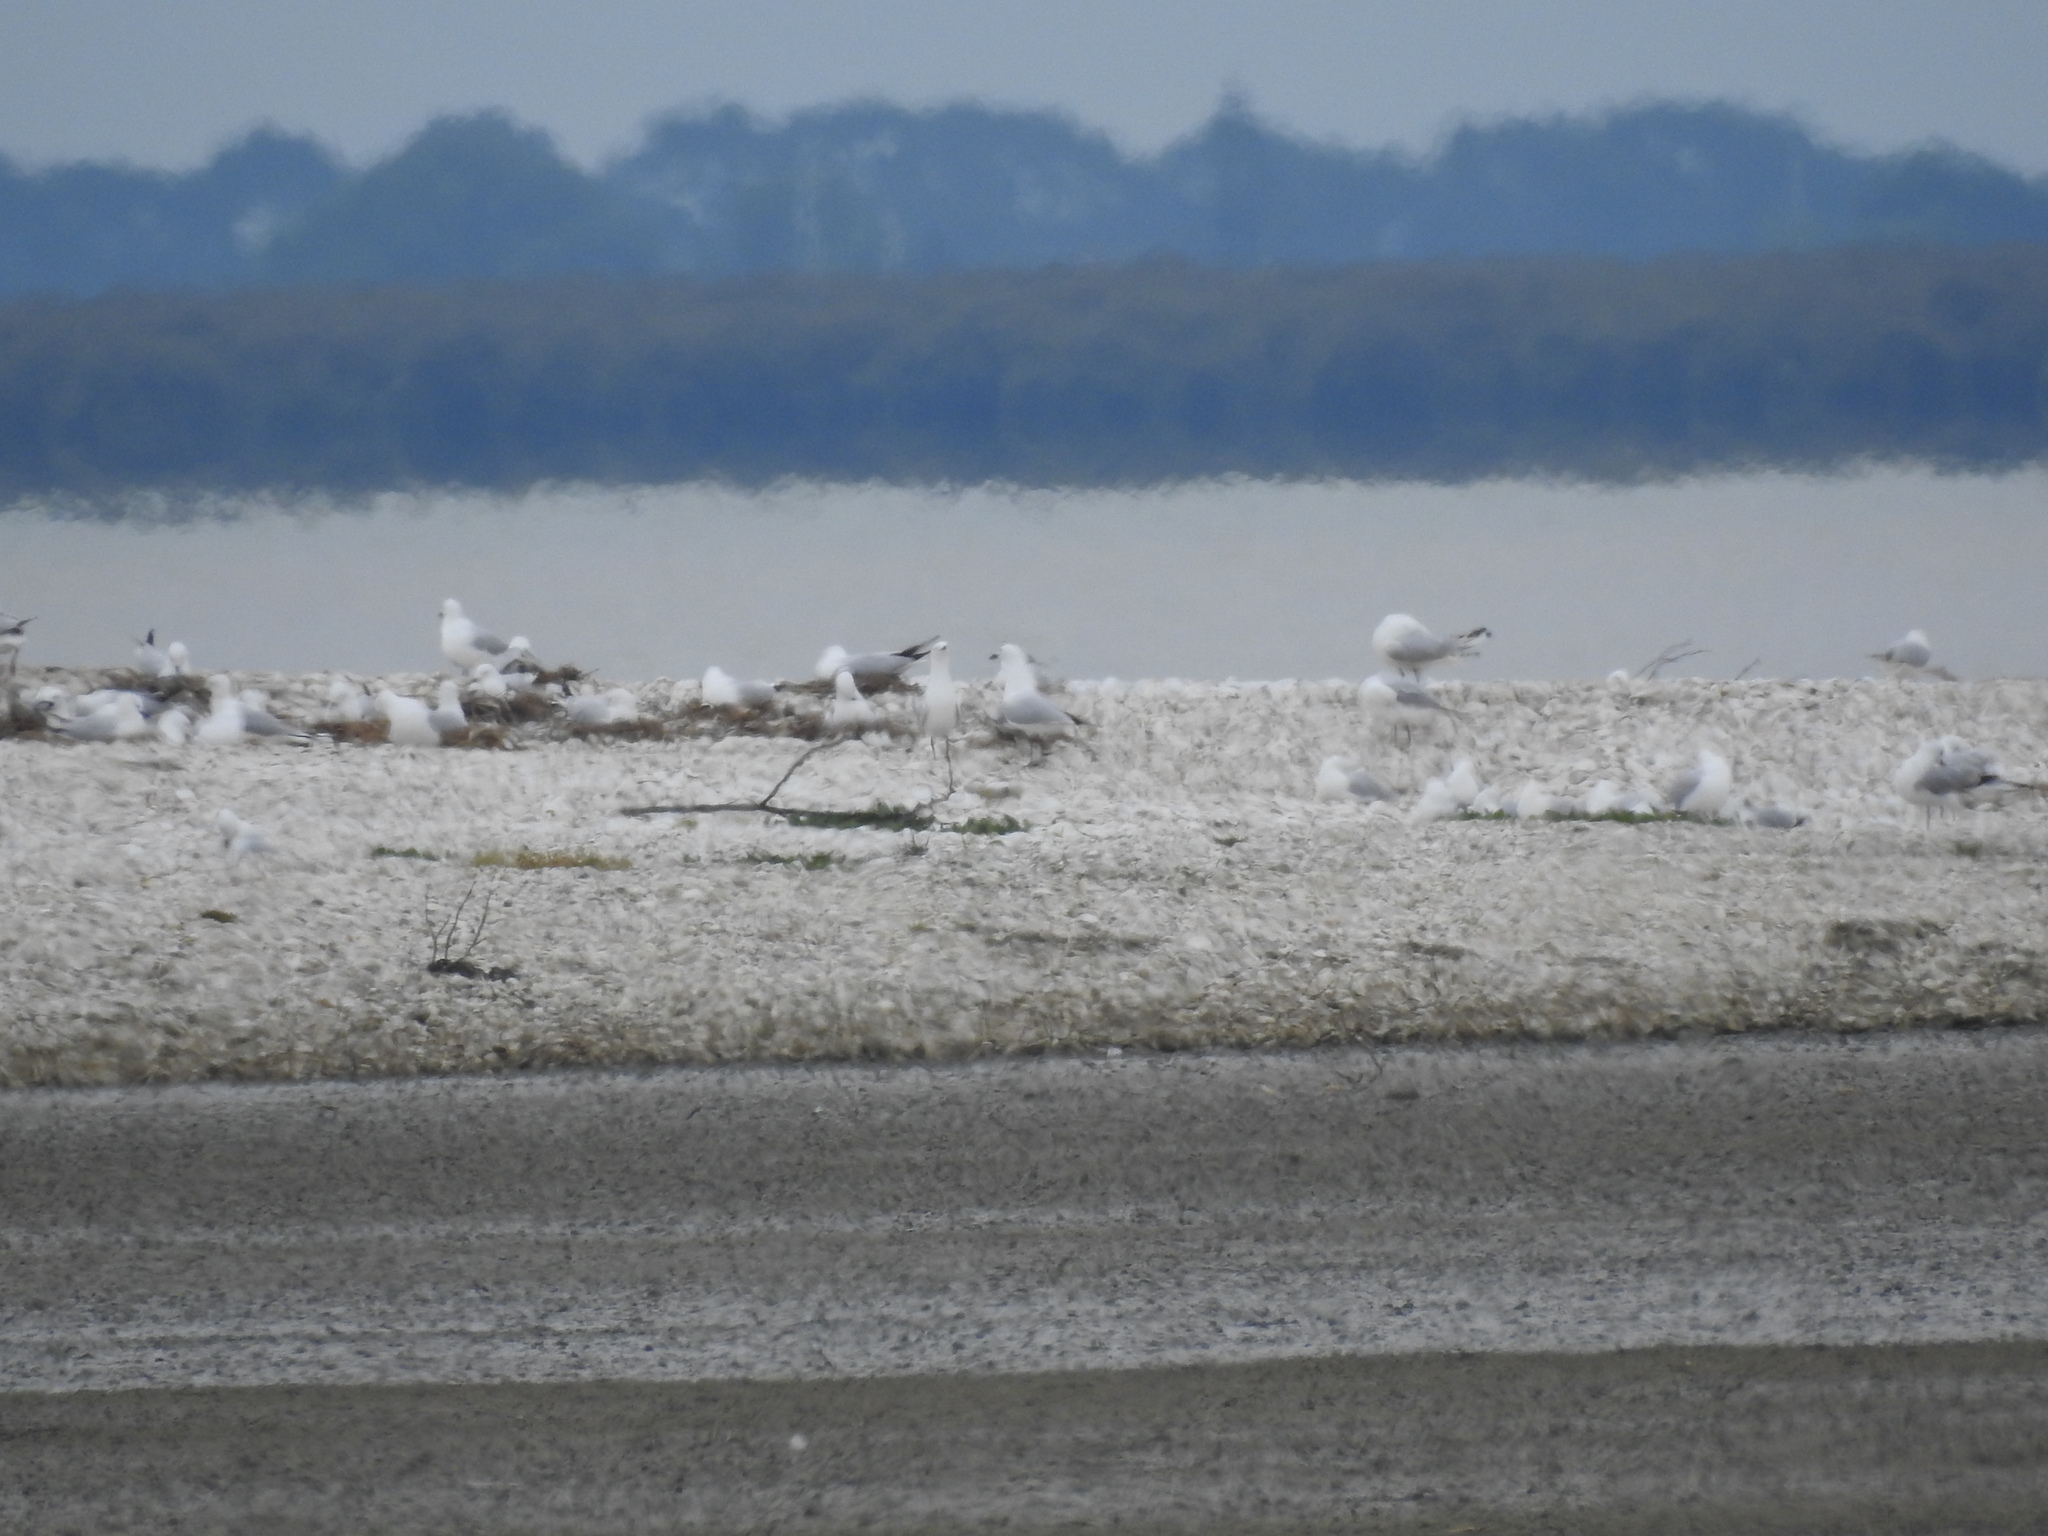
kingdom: Animalia
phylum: Chordata
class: Aves
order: Charadriiformes
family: Laridae
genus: Chroicocephalus
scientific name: Chroicocephalus bulleri
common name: Black-billed gull
